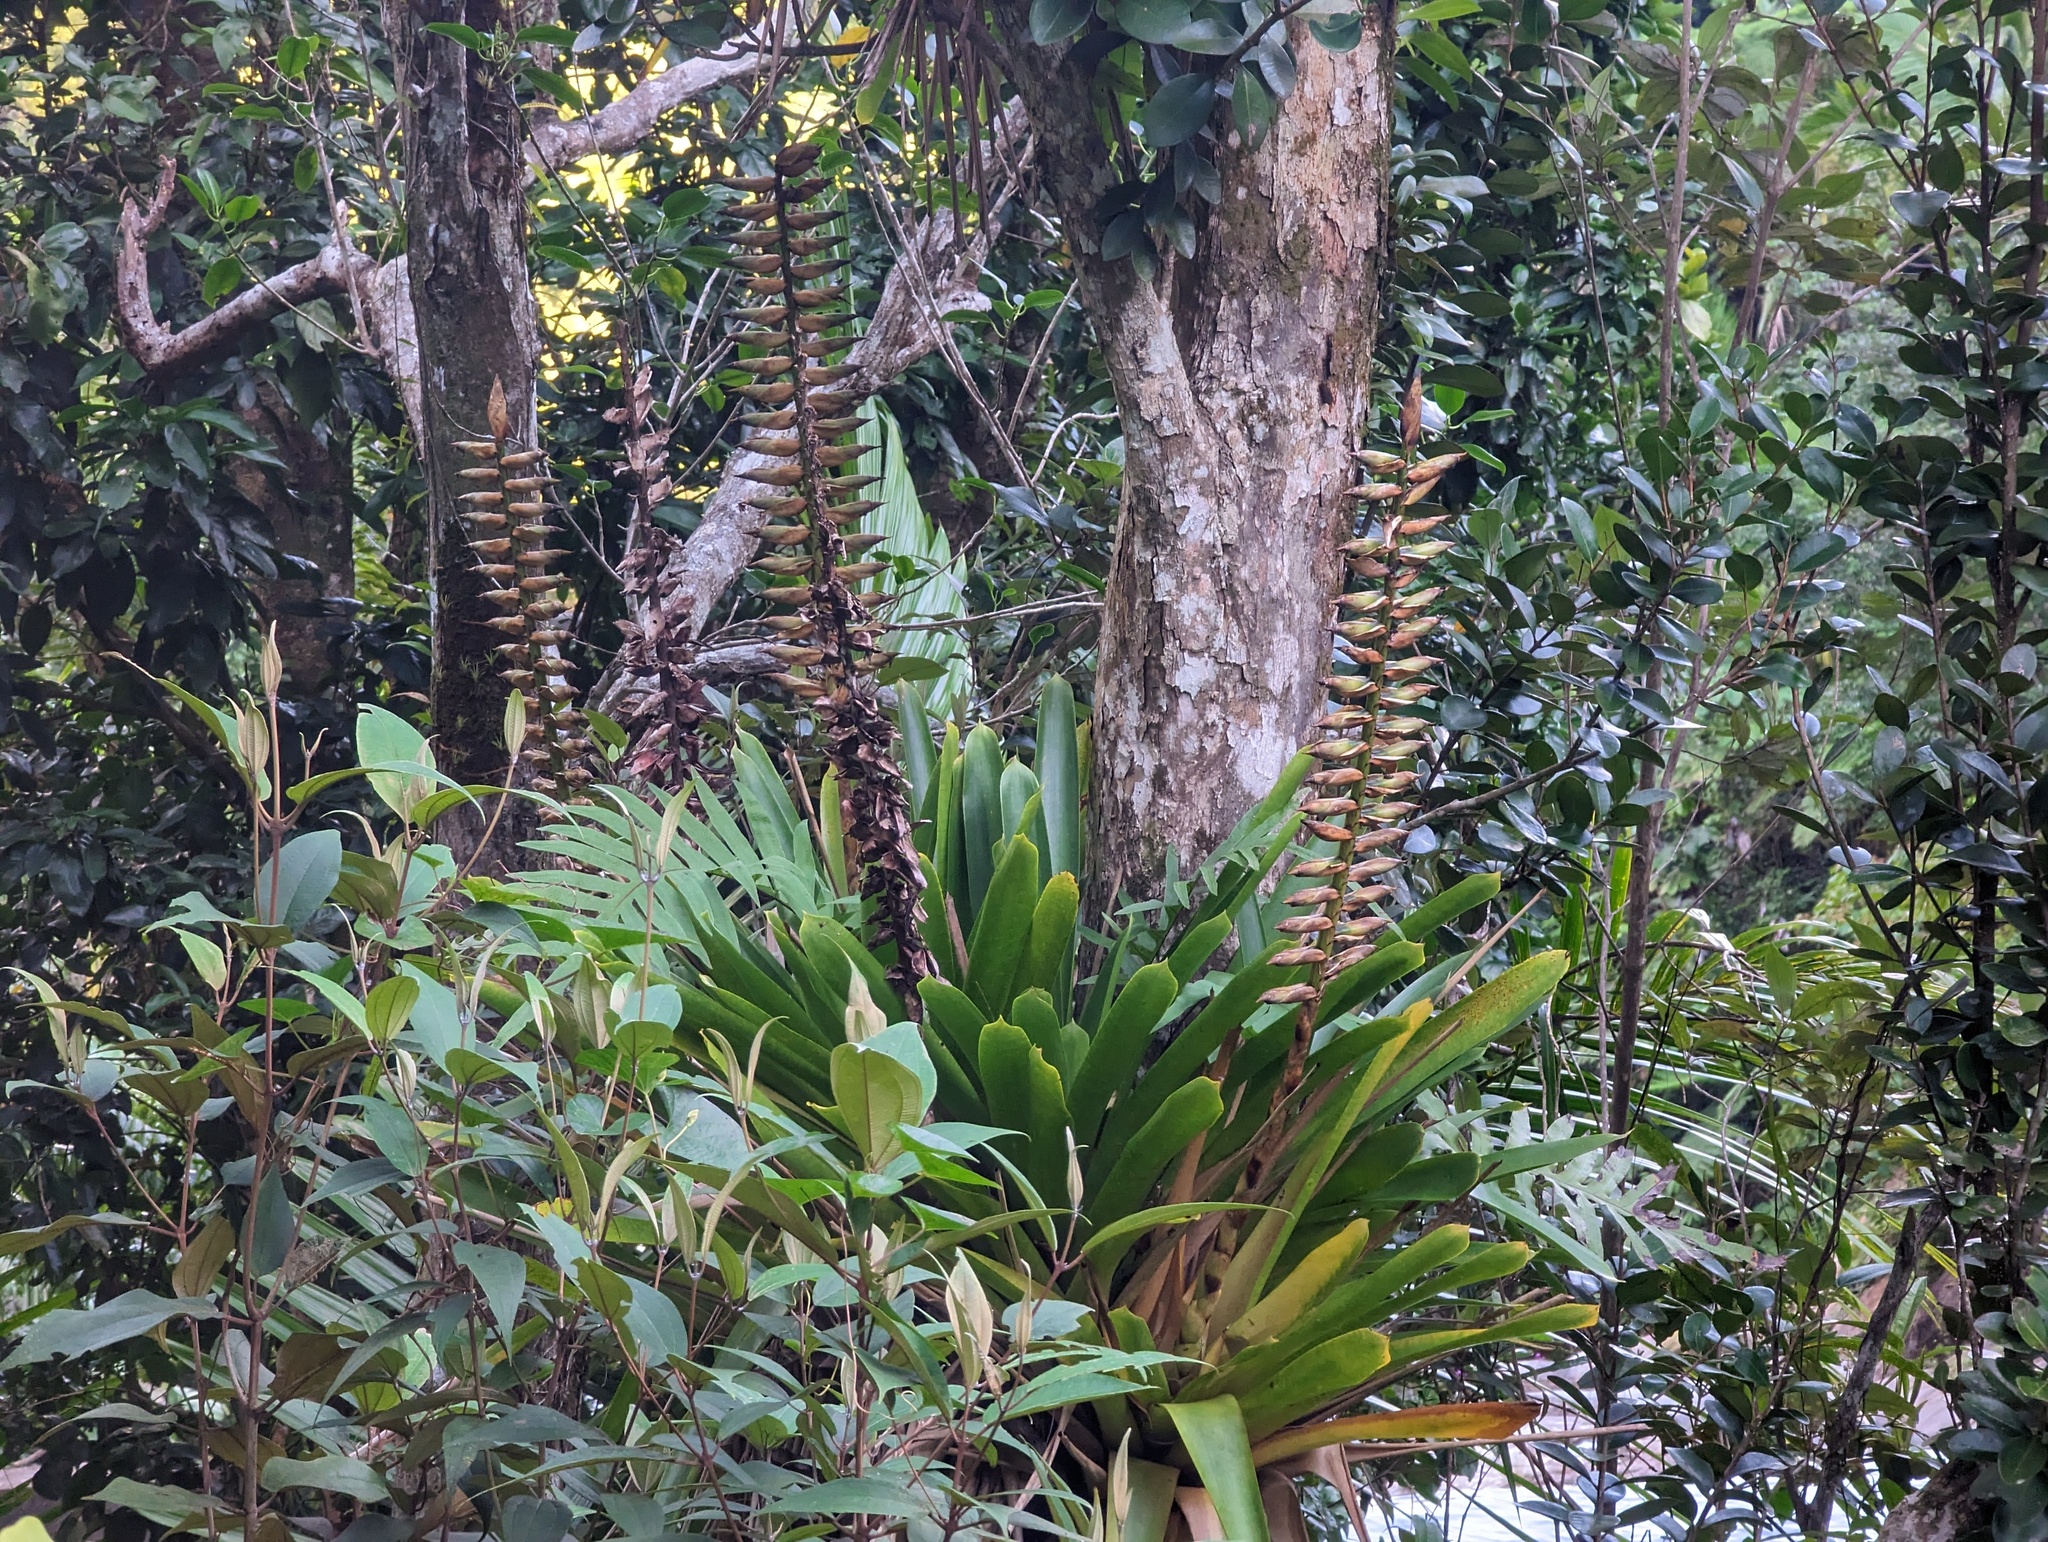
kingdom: Plantae
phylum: Tracheophyta
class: Liliopsida
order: Poales
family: Bromeliaceae
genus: Vriesea
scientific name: Vriesea macrostachya
